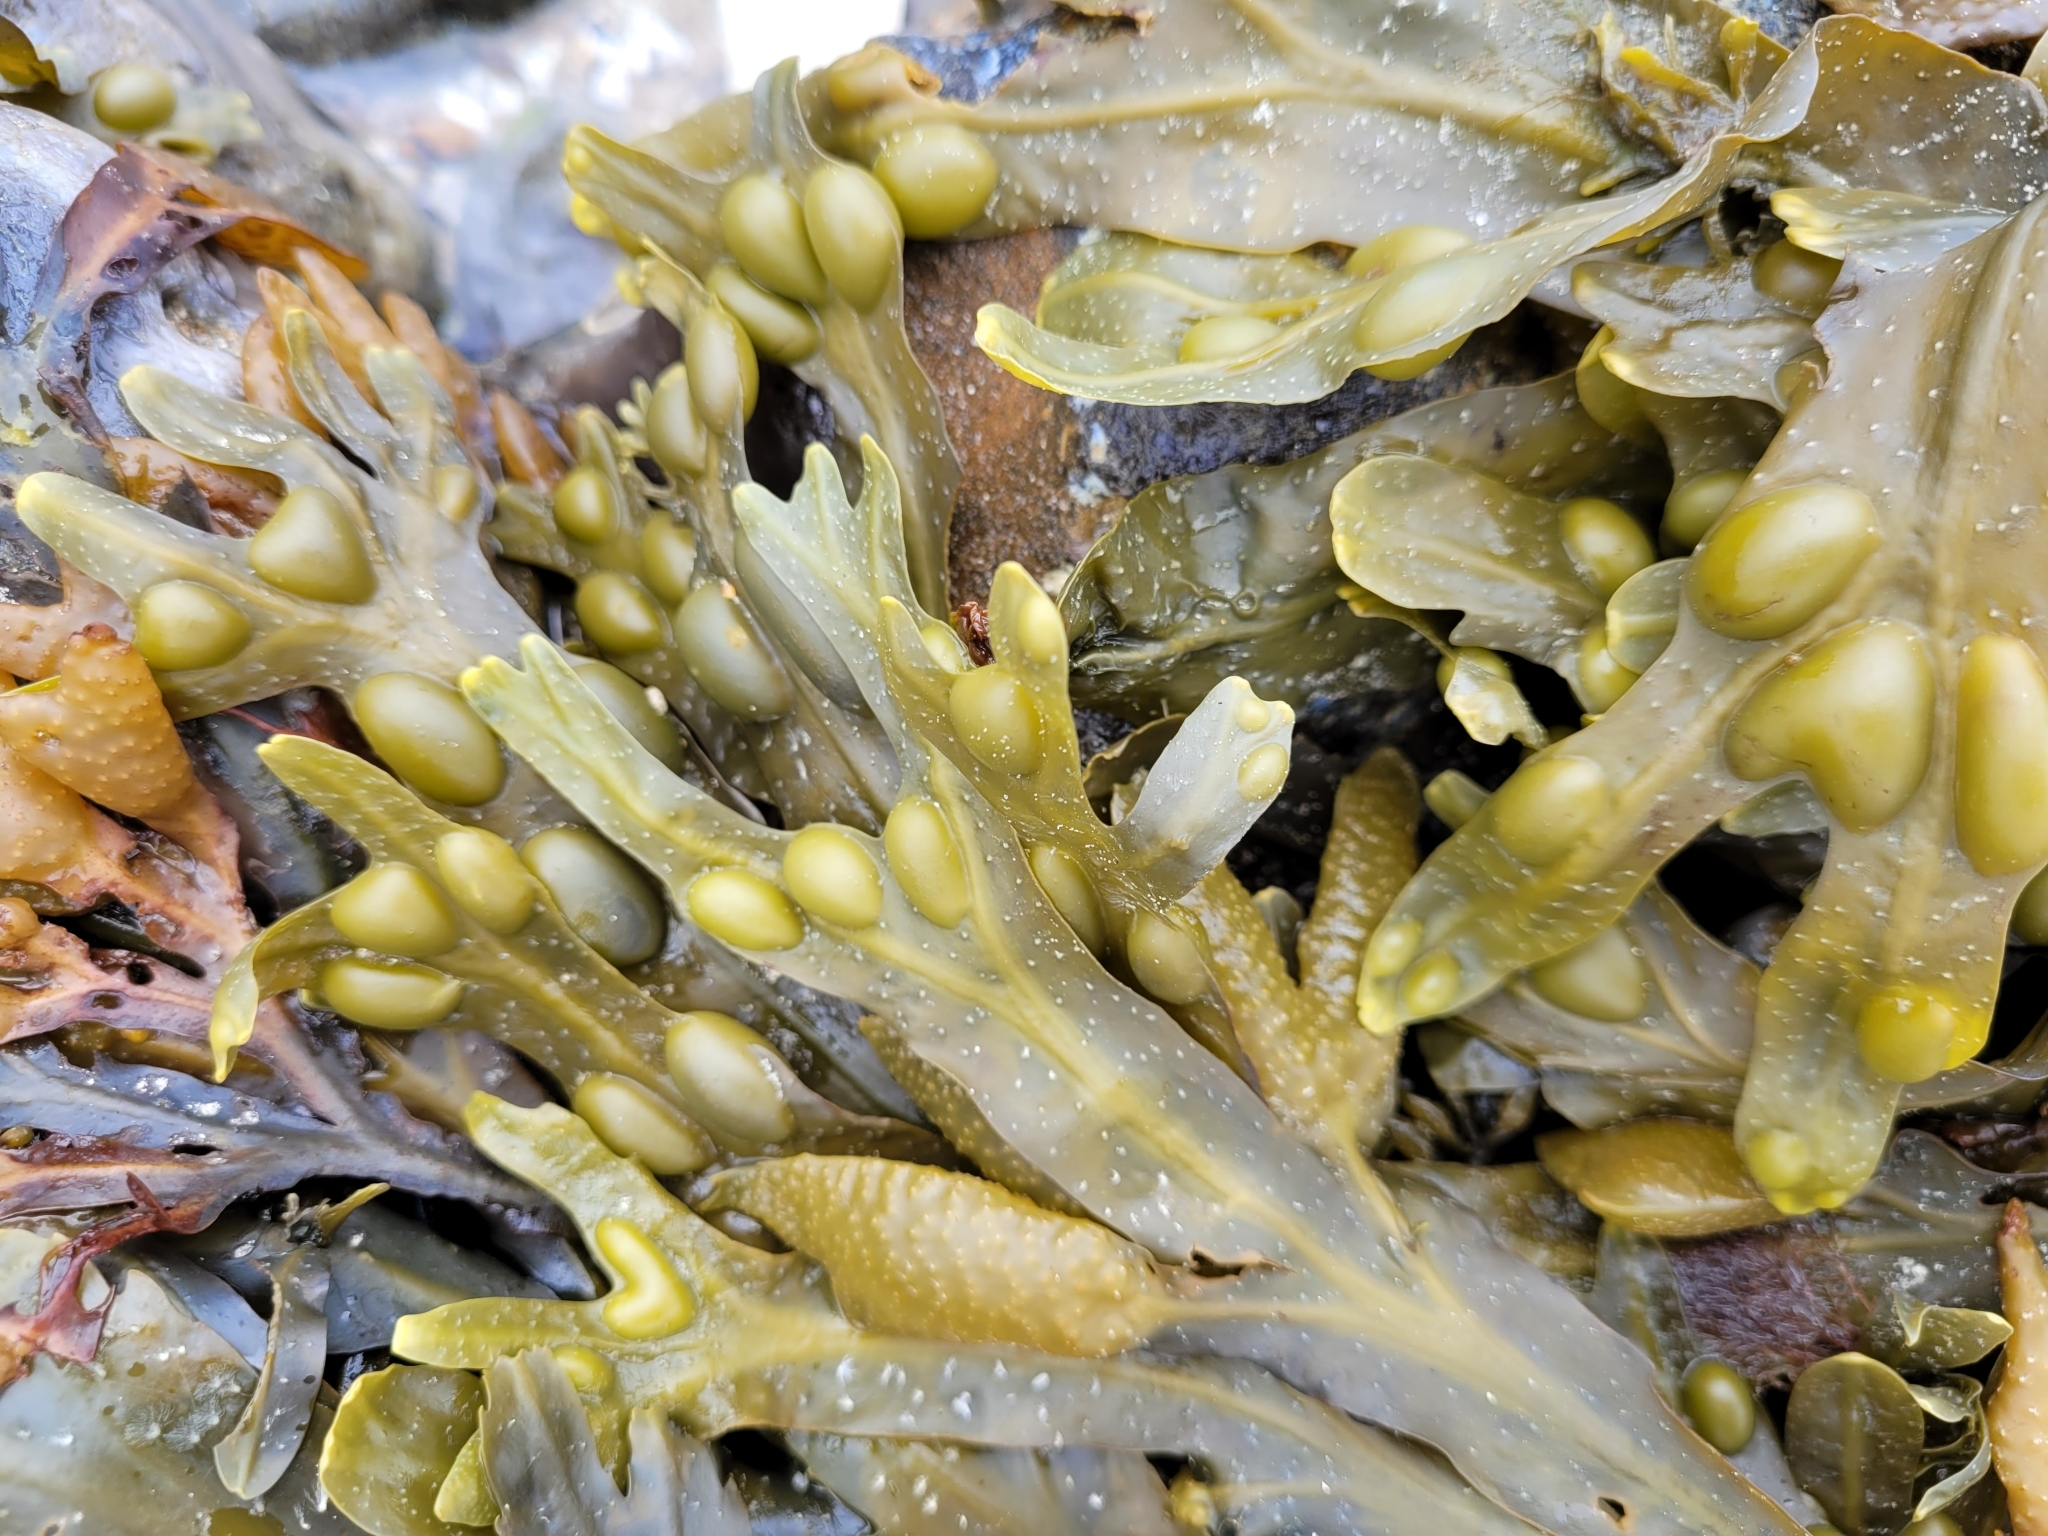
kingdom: Chromista
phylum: Ochrophyta
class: Phaeophyceae
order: Fucales
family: Fucaceae
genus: Fucus
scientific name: Fucus vesiculosus
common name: Bladder wrack
